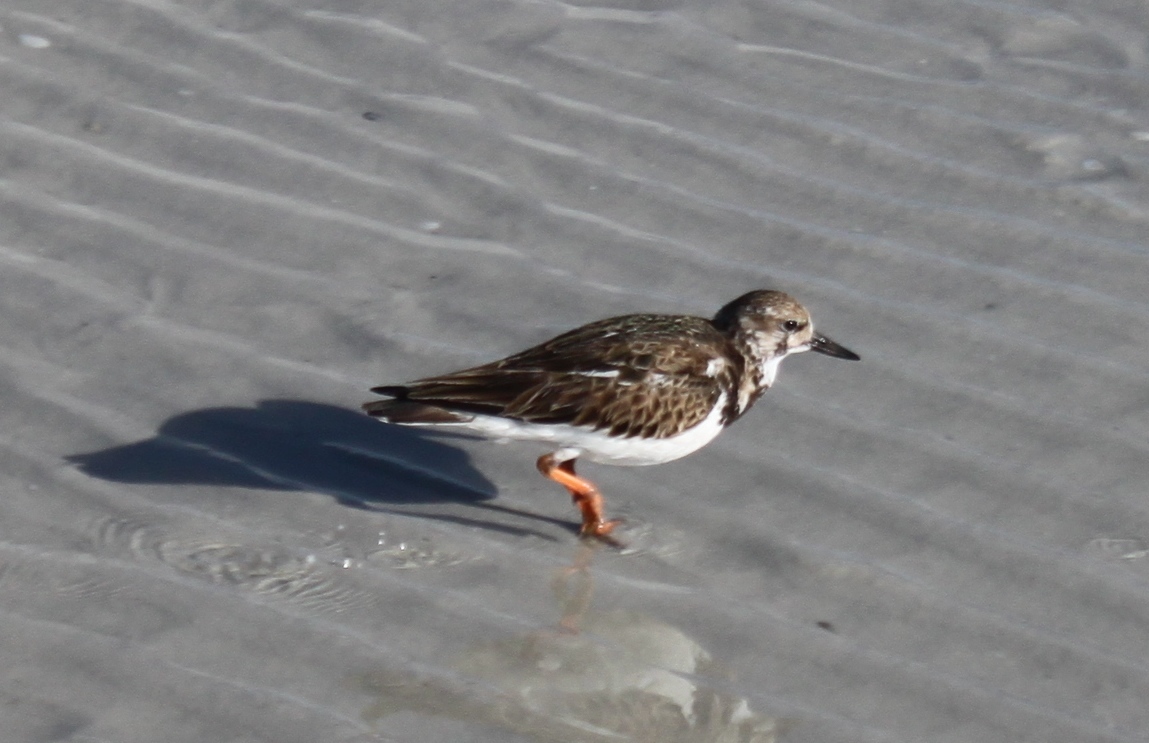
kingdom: Animalia
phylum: Chordata
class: Aves
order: Charadriiformes
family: Scolopacidae
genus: Arenaria
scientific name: Arenaria interpres
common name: Ruddy turnstone
